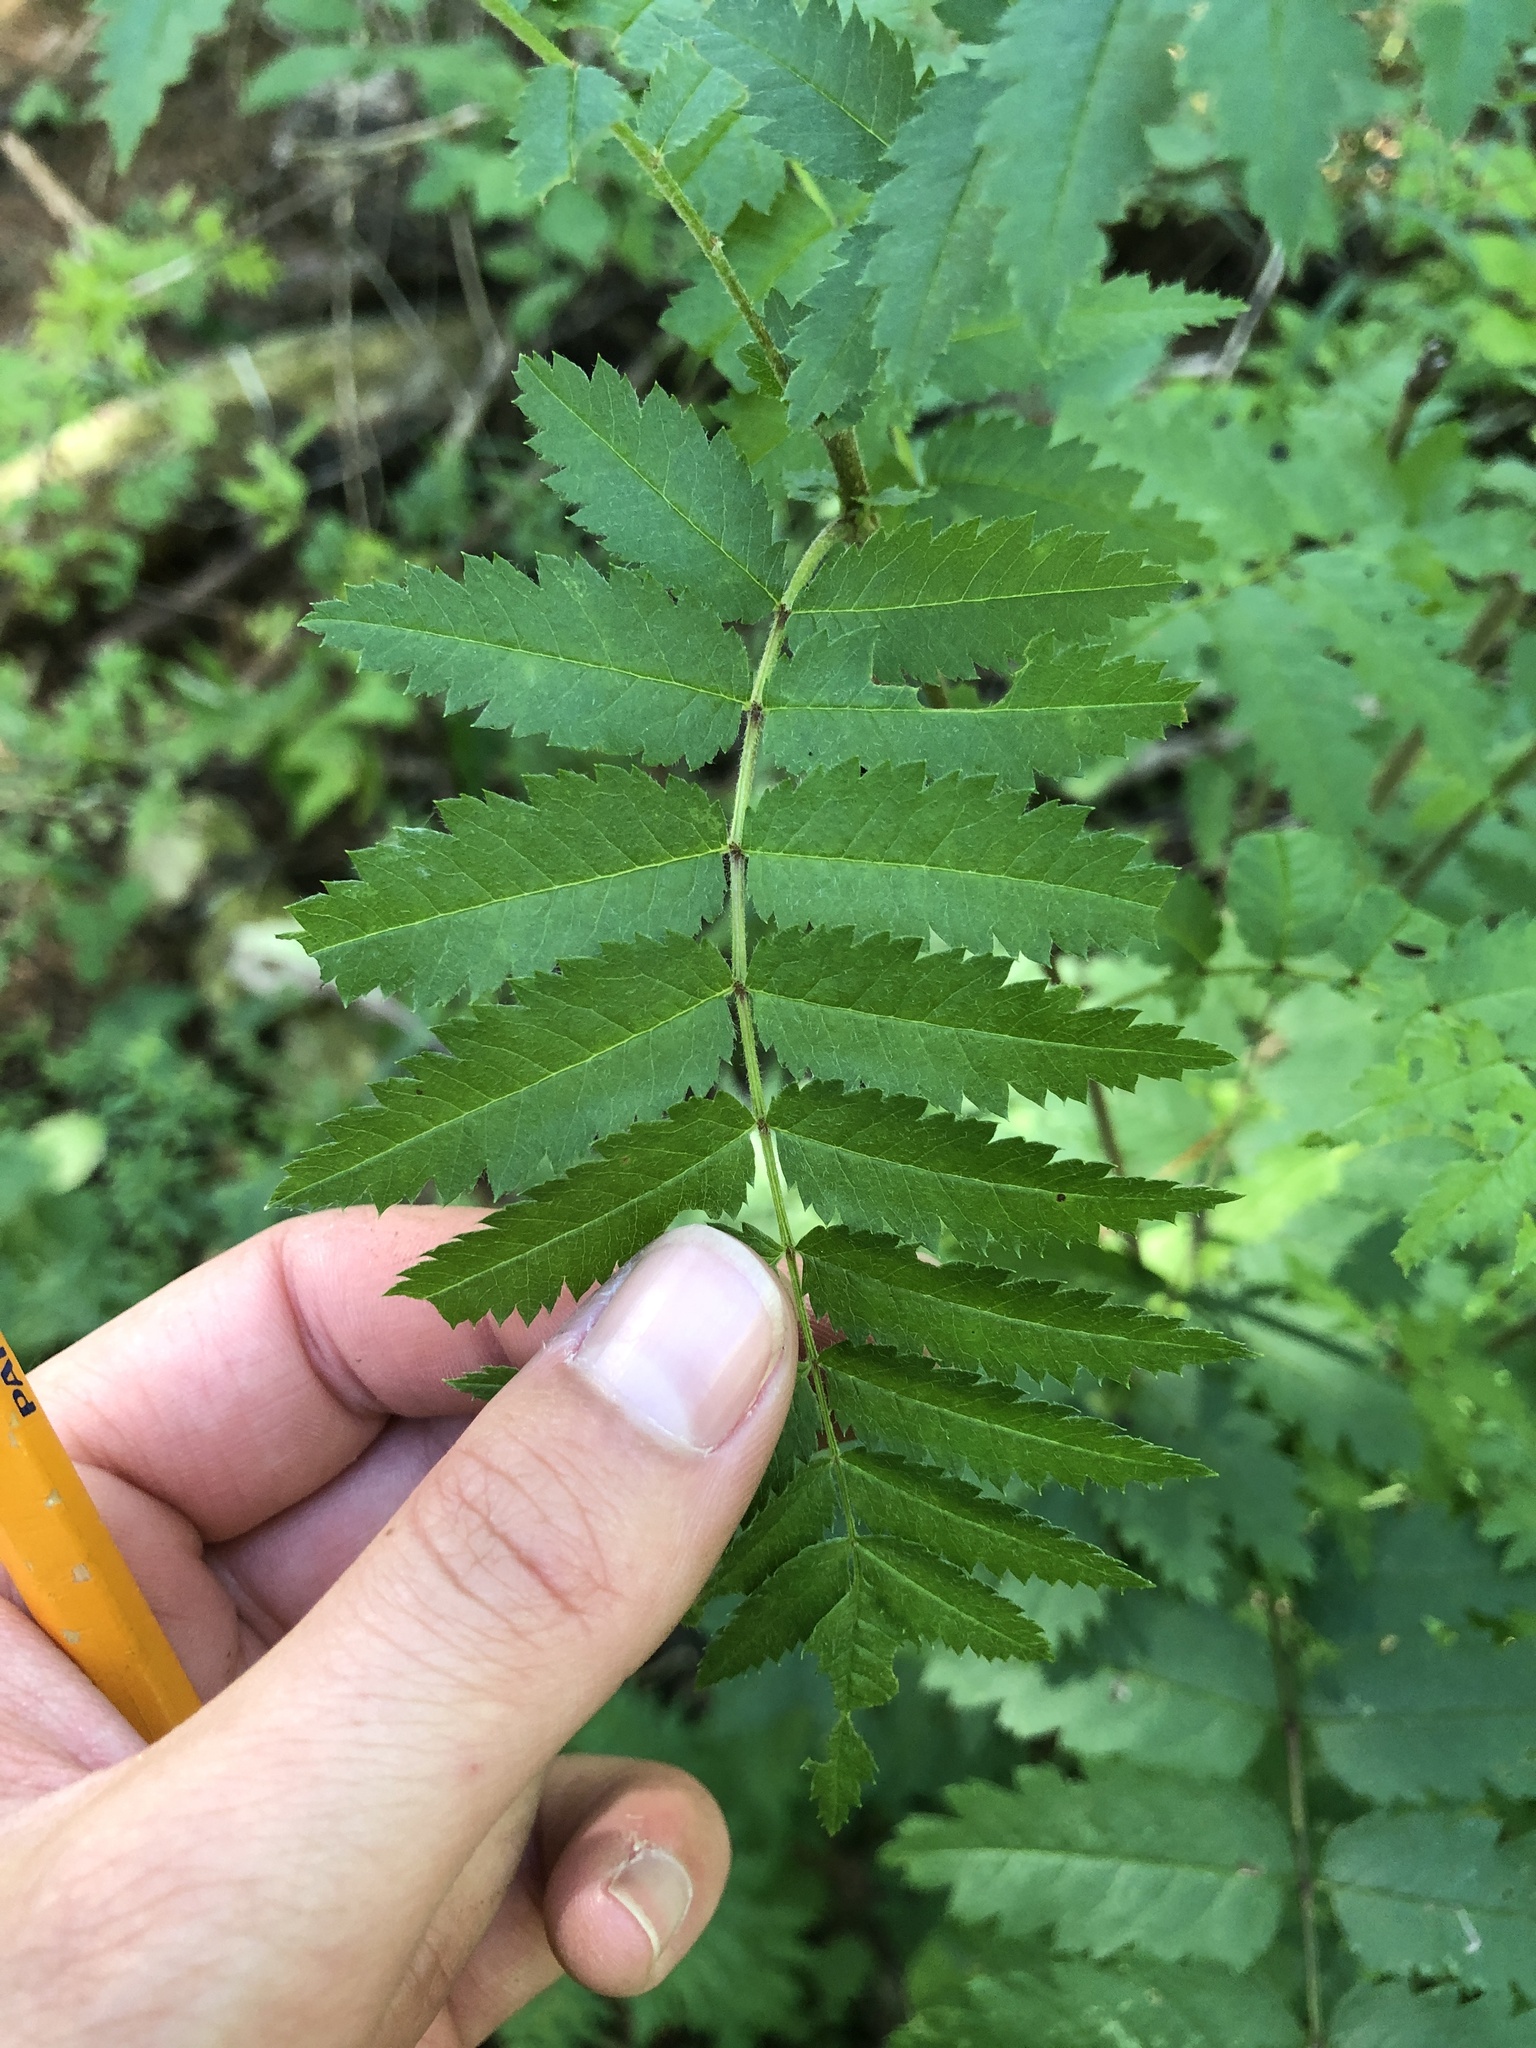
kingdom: Plantae
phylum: Tracheophyta
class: Magnoliopsida
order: Rosales
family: Rosaceae
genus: Sorbus
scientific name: Sorbus aucuparia
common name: Rowan
